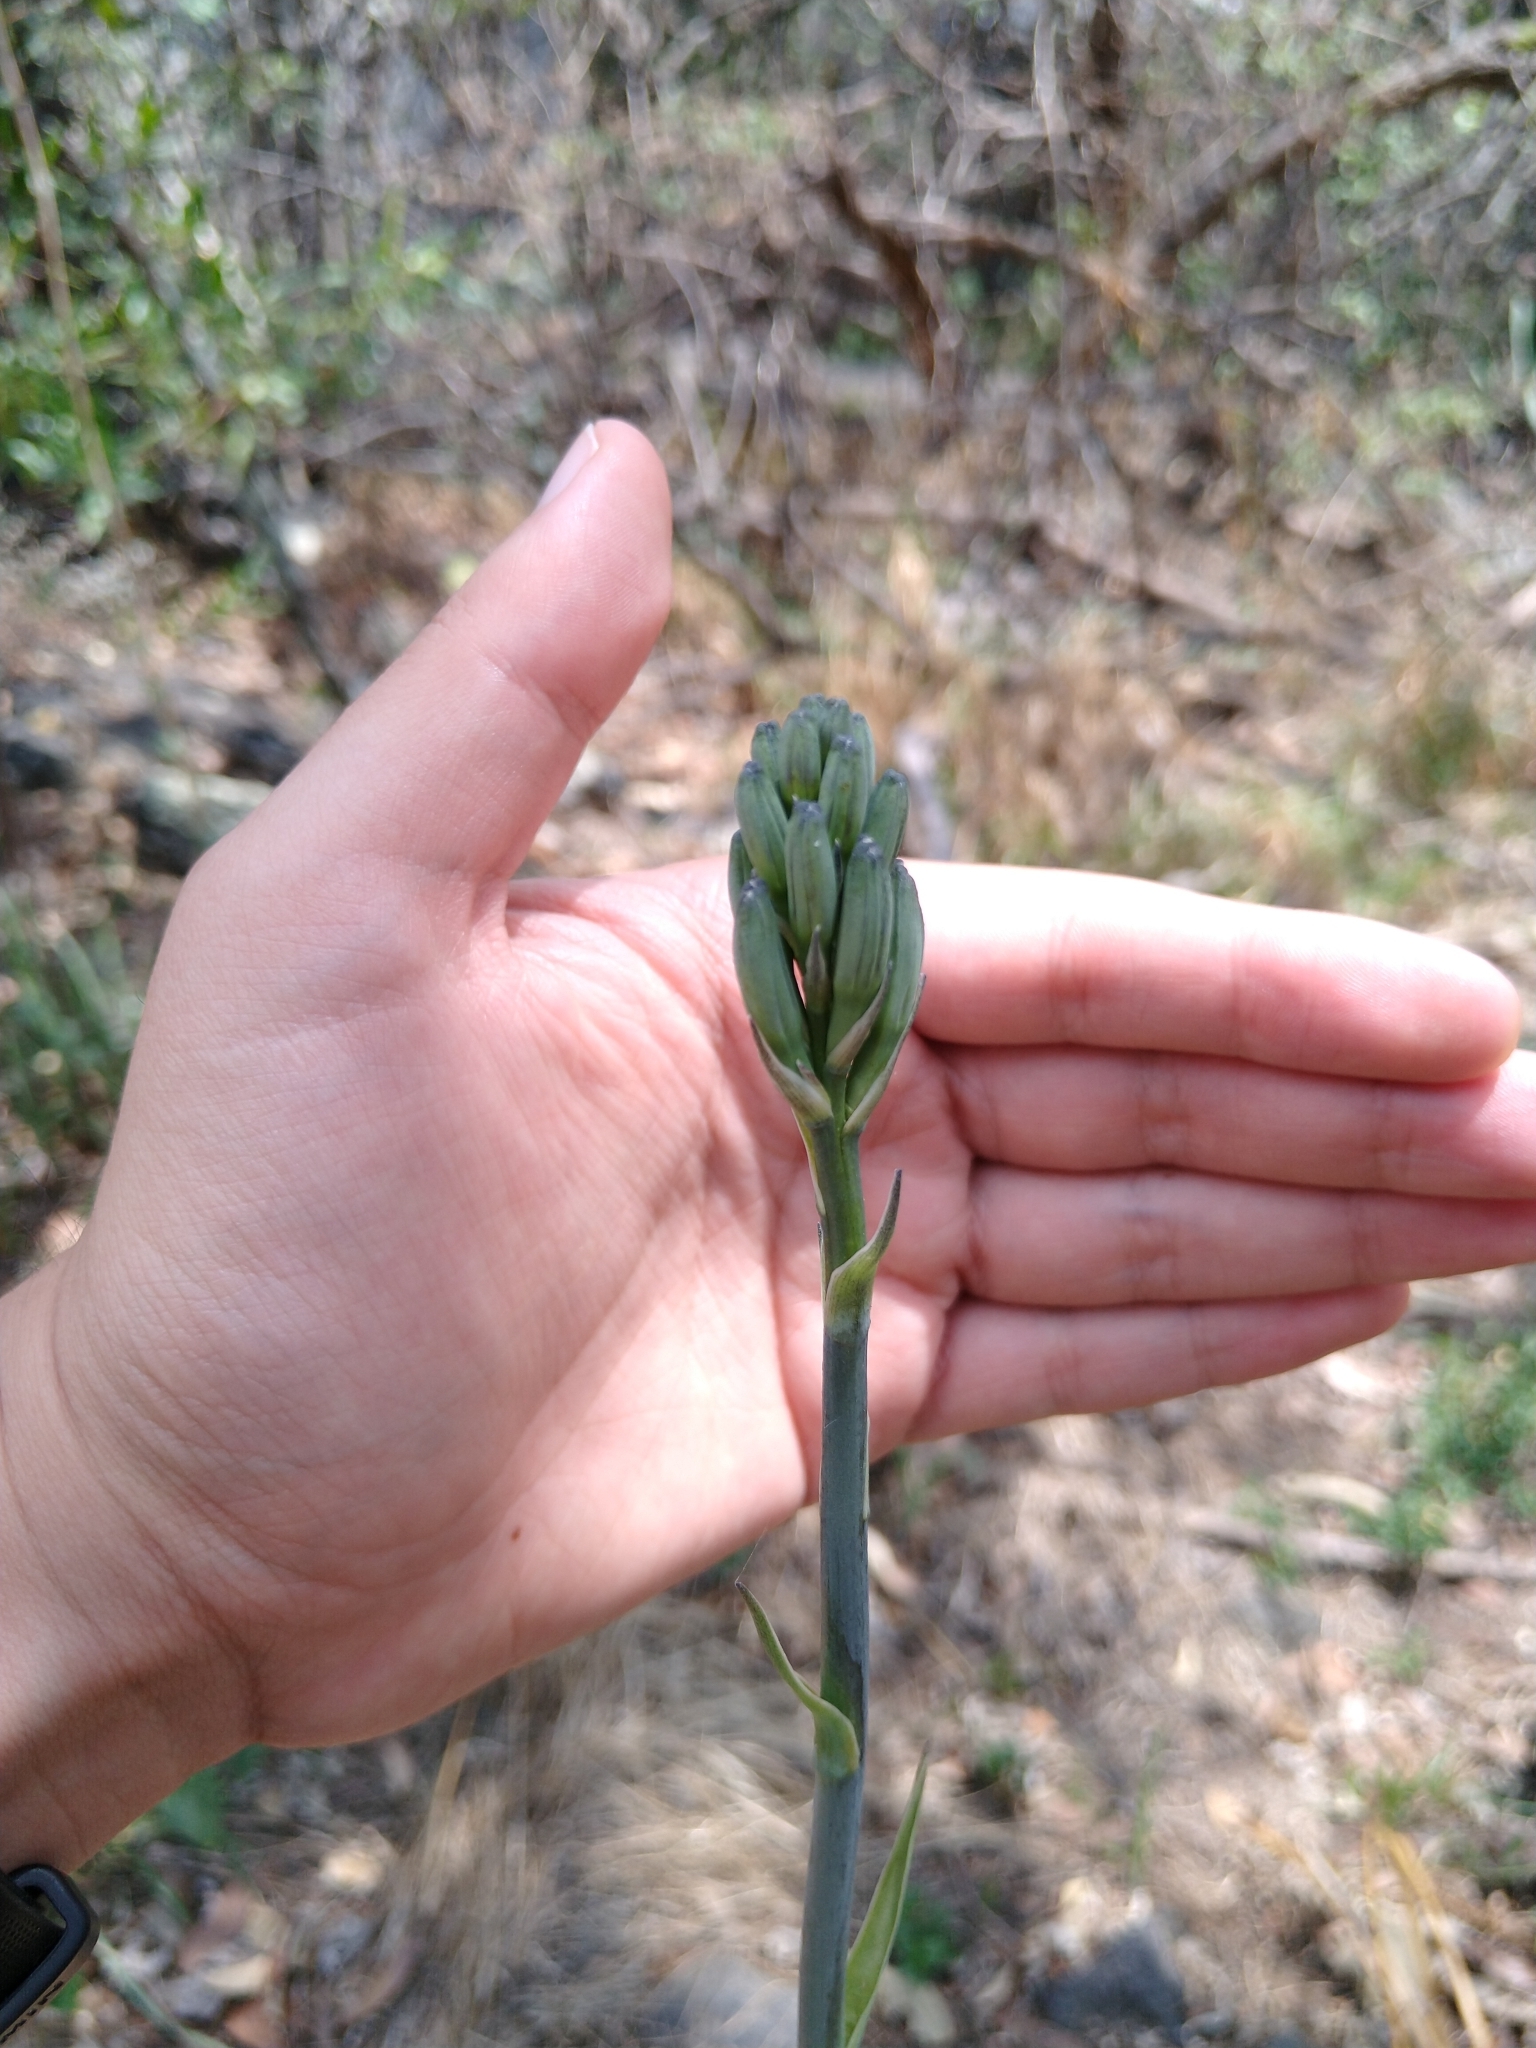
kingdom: Plantae
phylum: Tracheophyta
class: Liliopsida
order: Asparagales
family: Asparagaceae
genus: Agave
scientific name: Agave variegata
